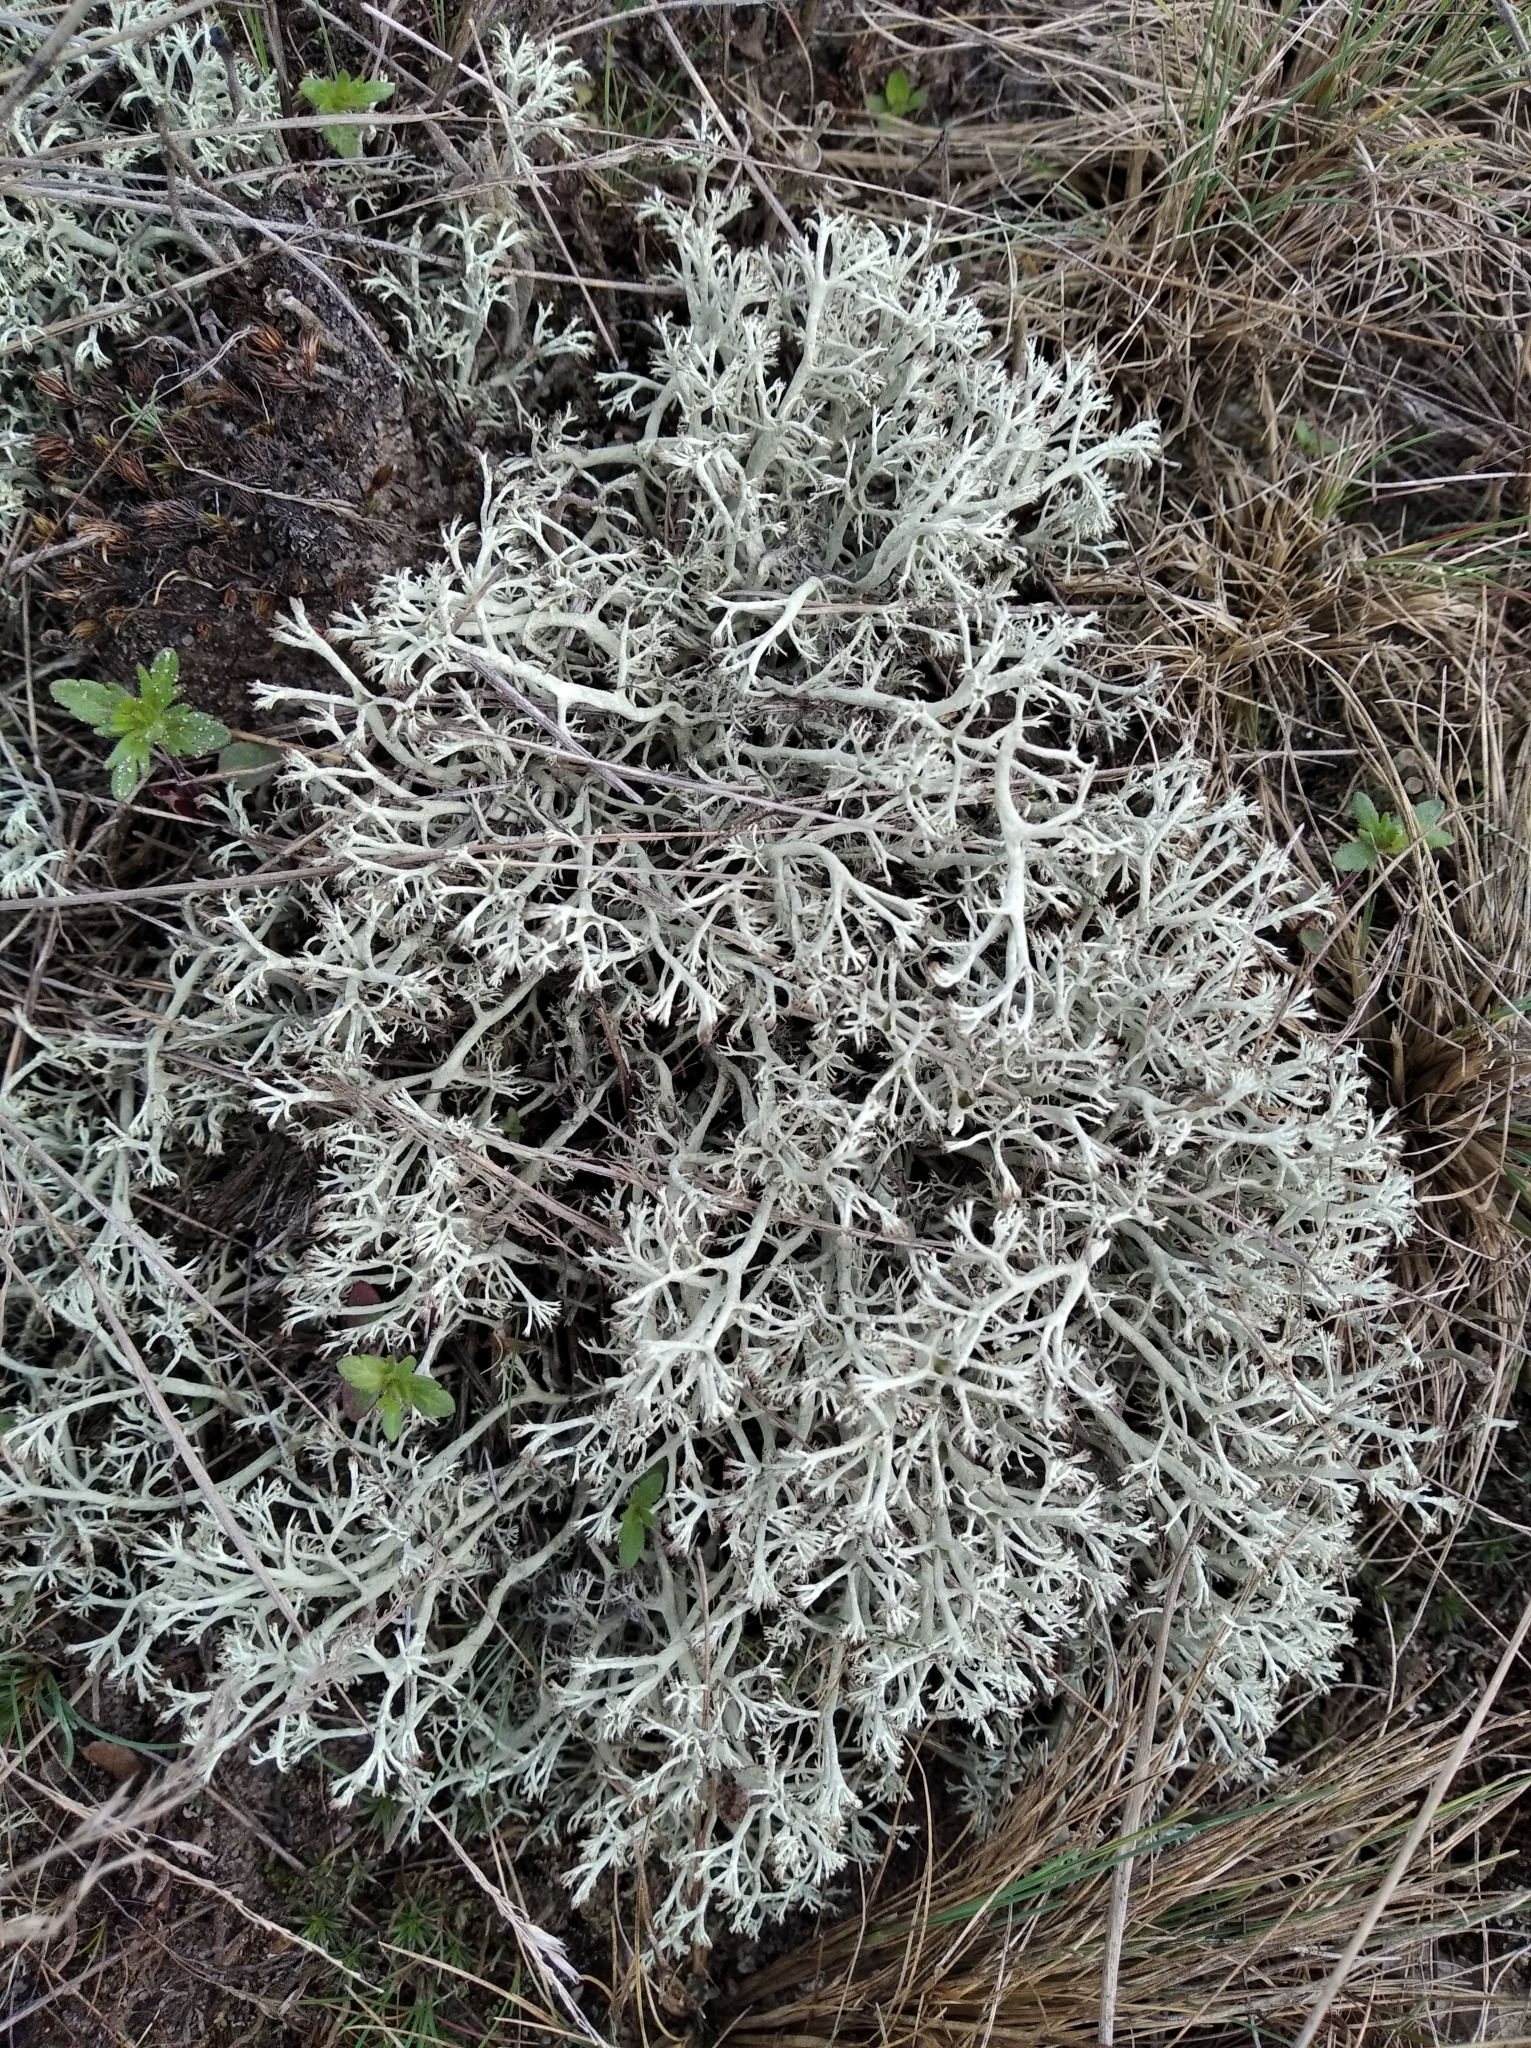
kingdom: Fungi
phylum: Ascomycota
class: Lecanoromycetes
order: Lecanorales
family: Cladoniaceae
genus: Cladonia
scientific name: Cladonia arbuscula
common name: Reindeer lichen
